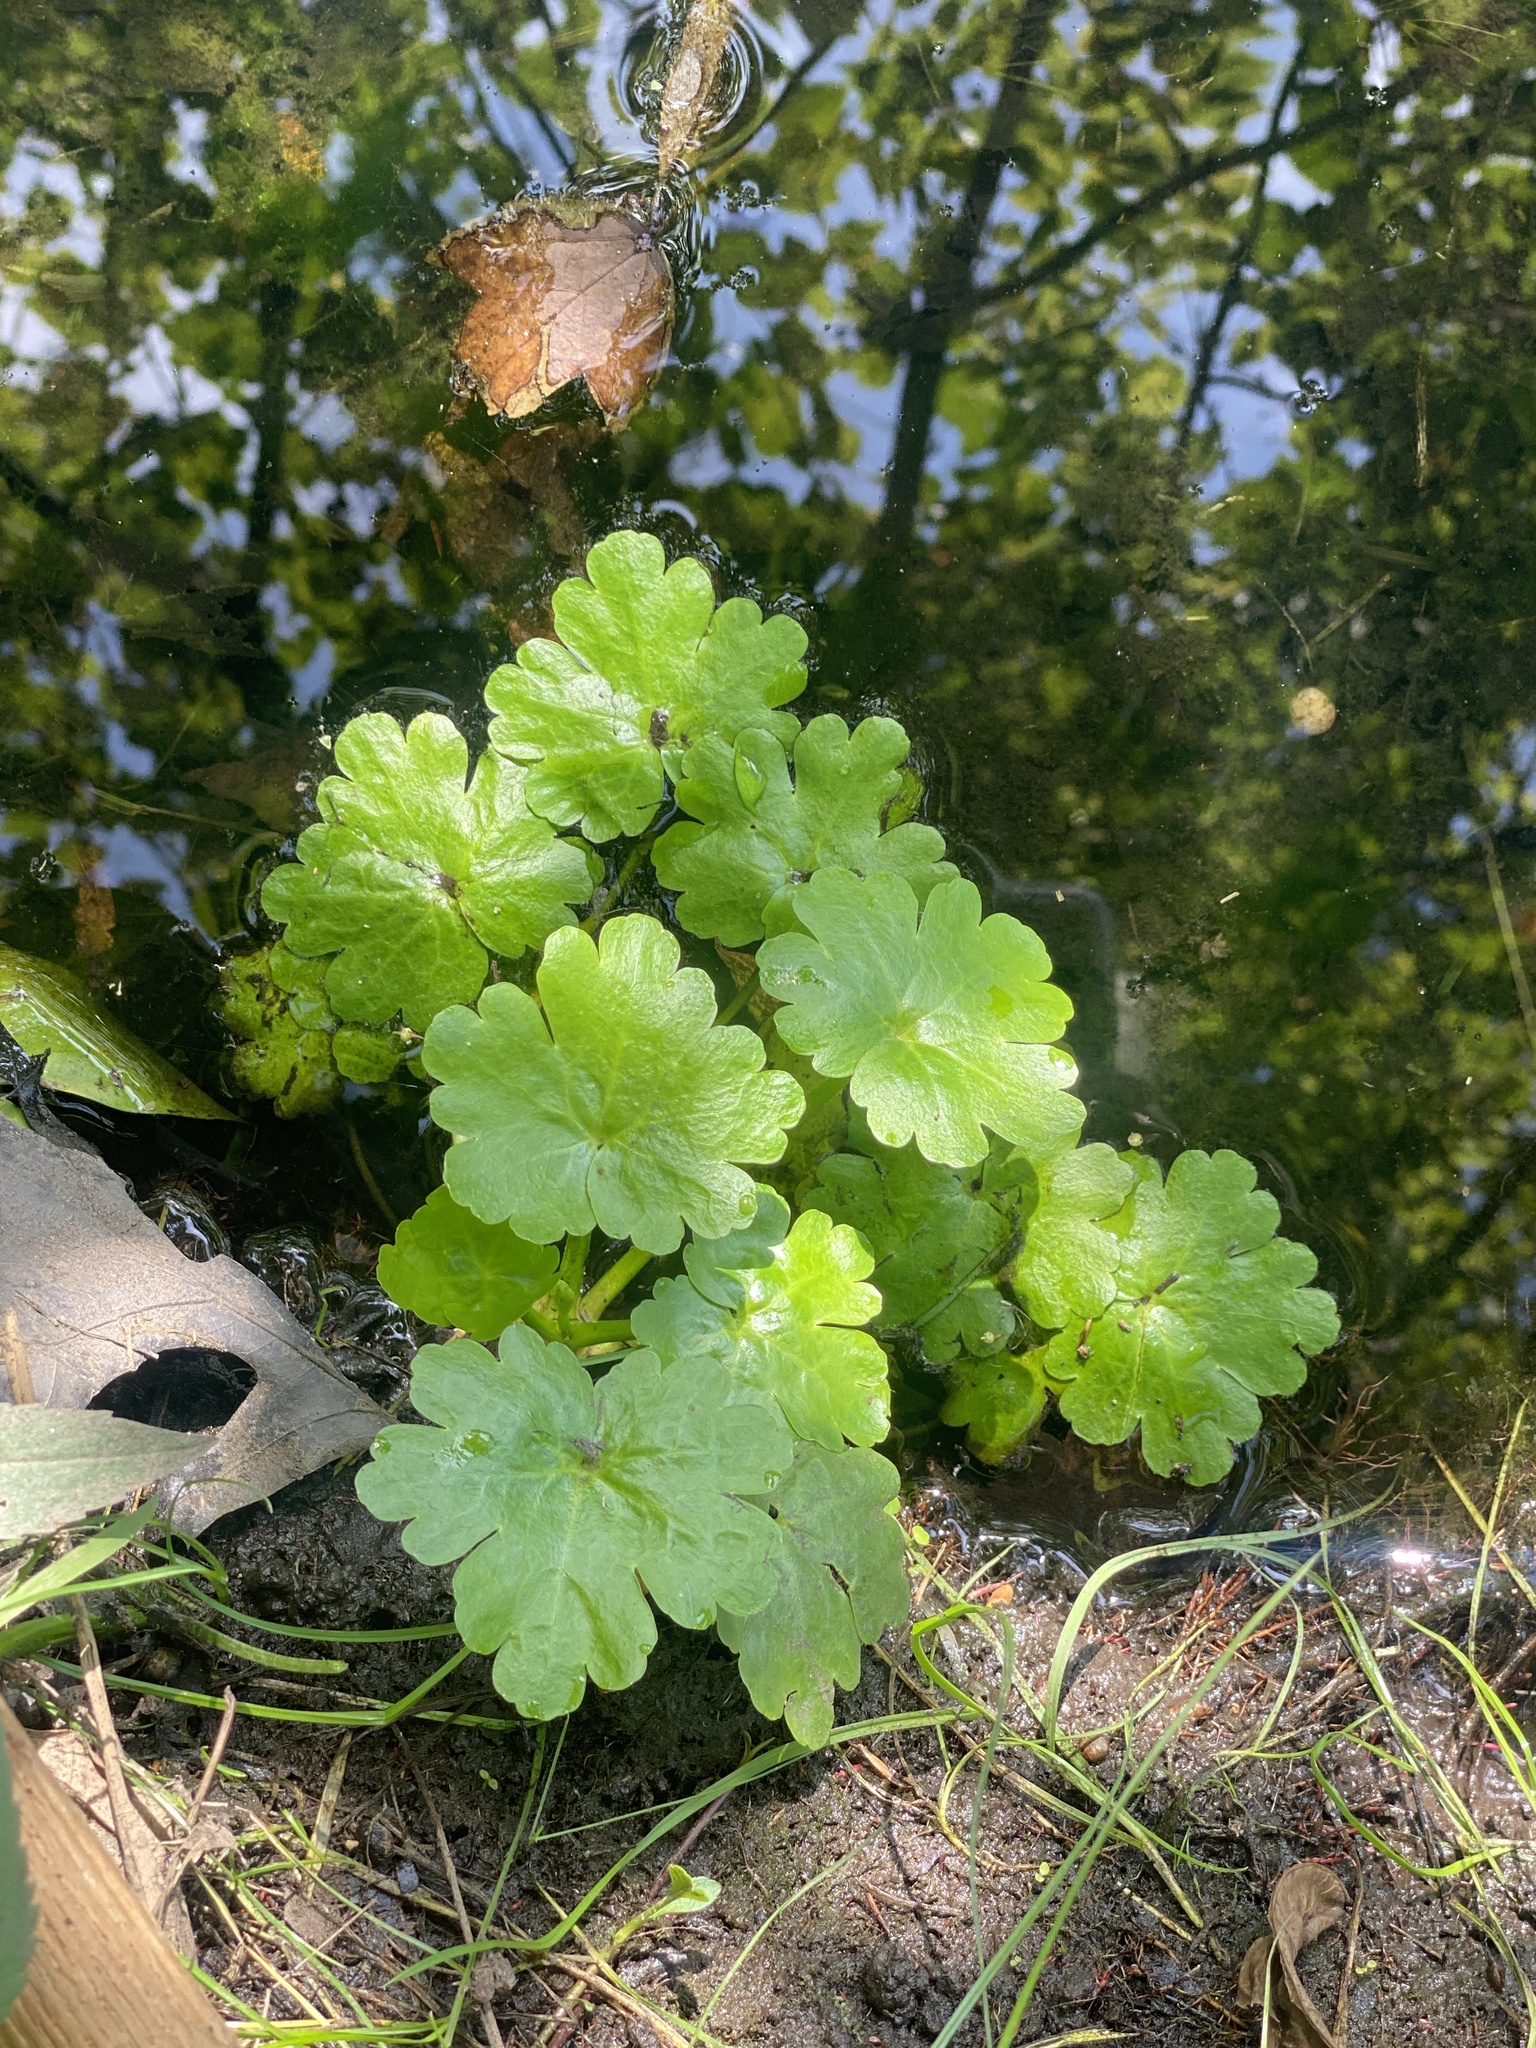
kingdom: Plantae
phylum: Tracheophyta
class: Magnoliopsida
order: Ranunculales
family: Ranunculaceae
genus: Ranunculus
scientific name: Ranunculus sceleratus
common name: Celery-leaved buttercup
